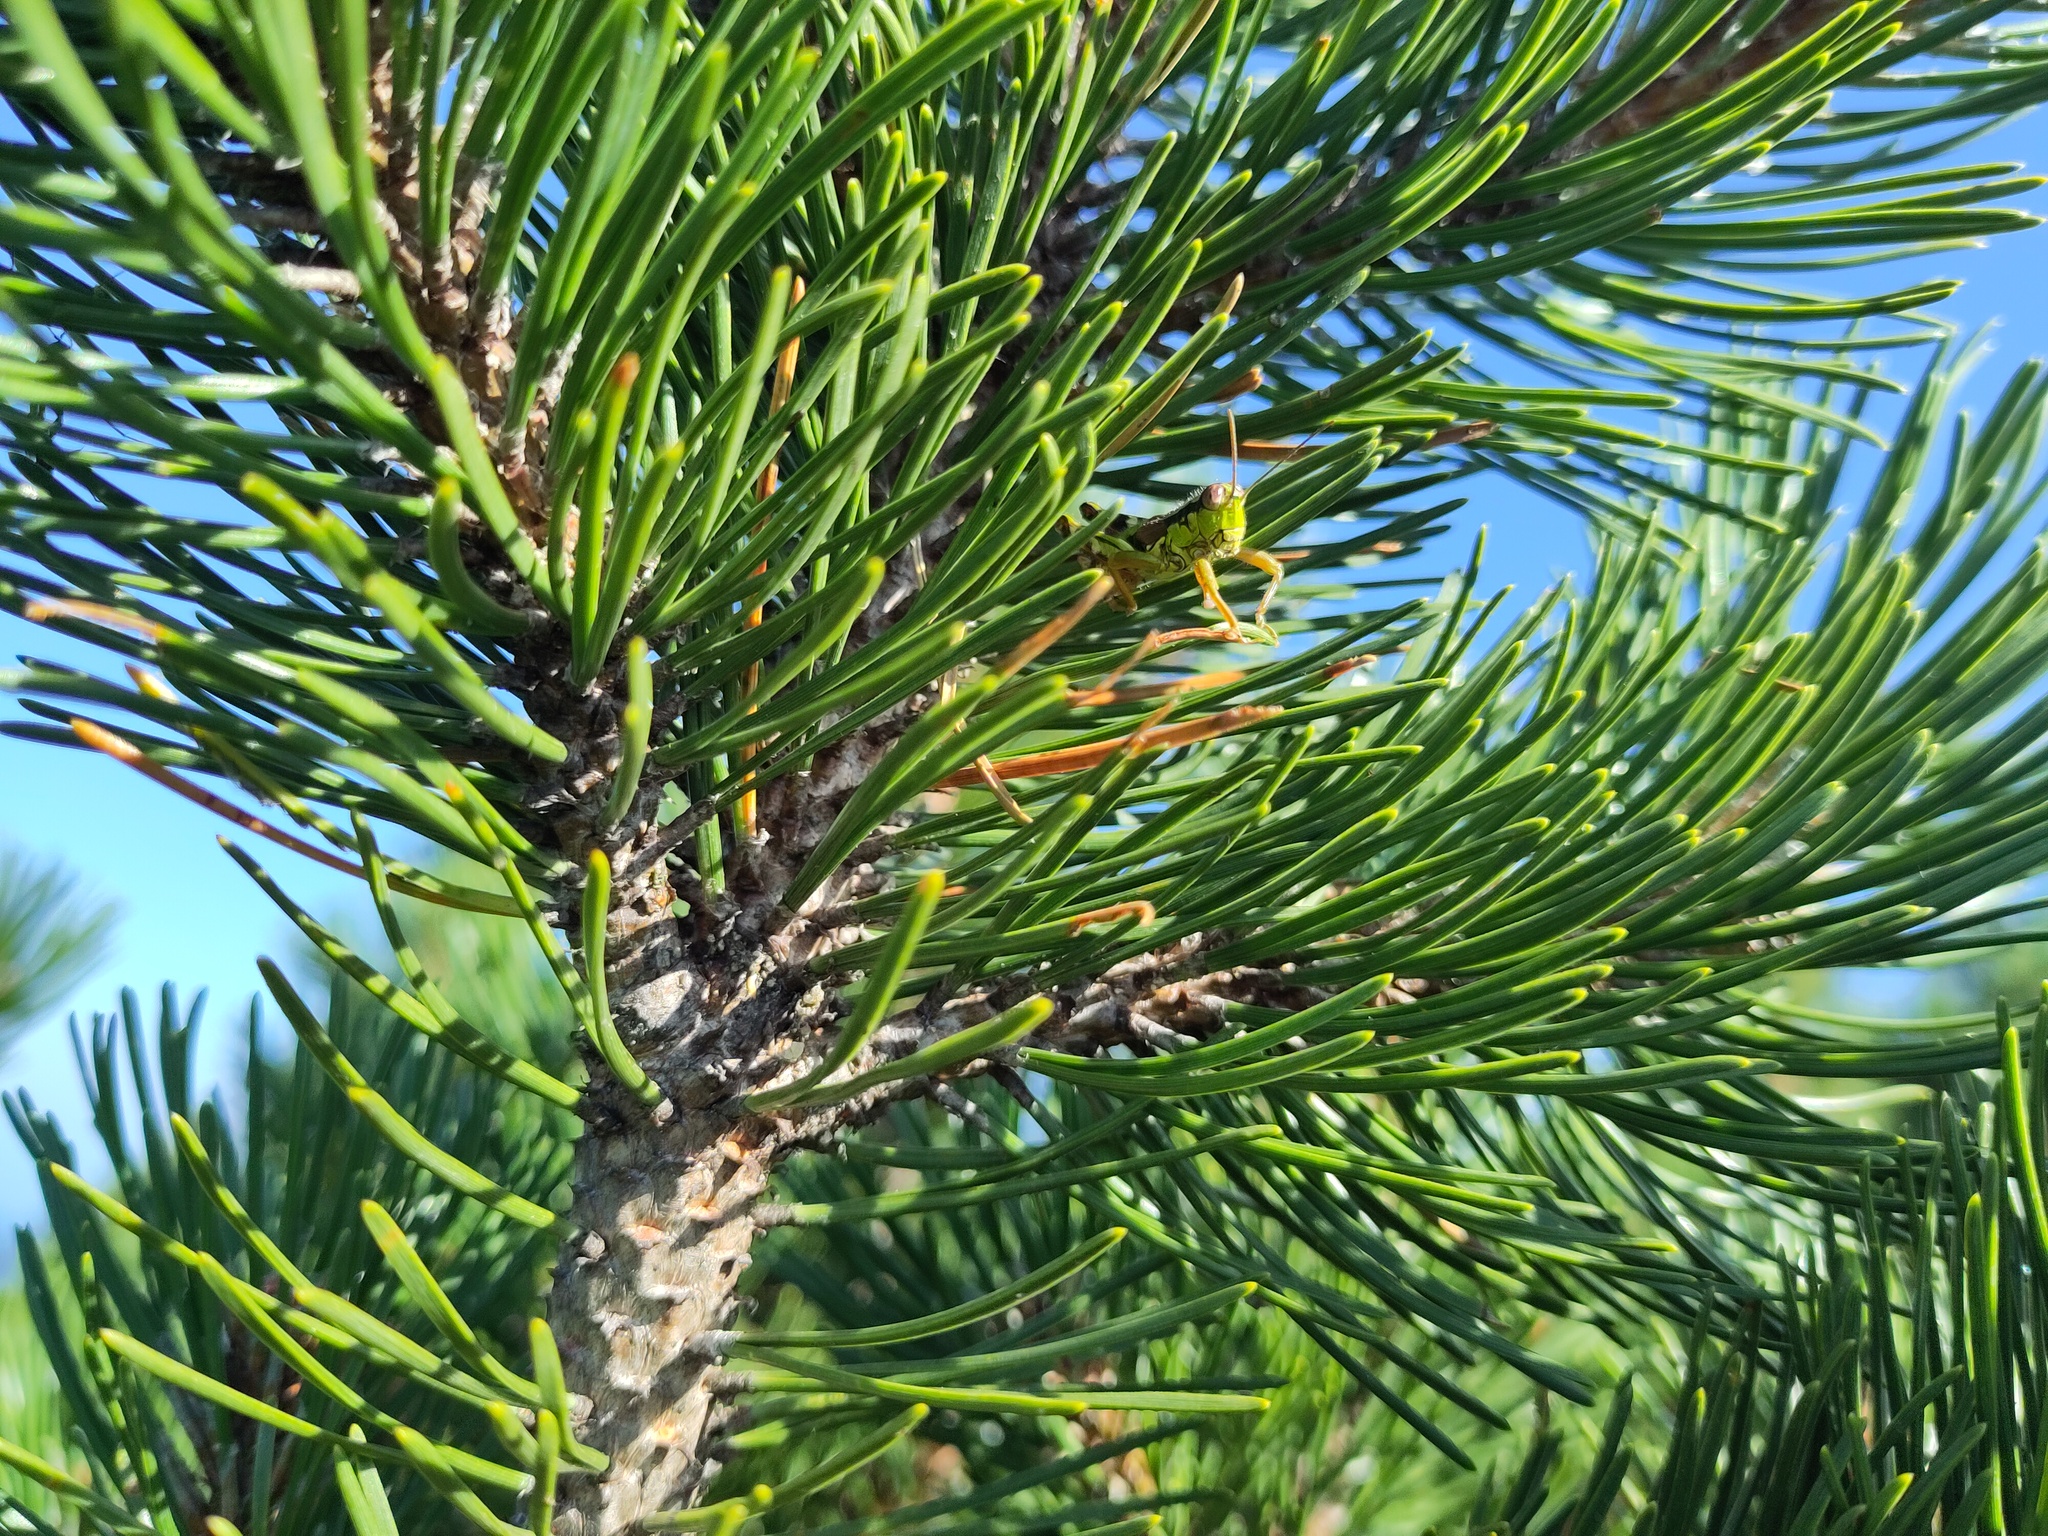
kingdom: Animalia
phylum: Arthropoda
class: Insecta
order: Orthoptera
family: Acrididae
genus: Miramella
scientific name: Miramella alpina
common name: Green mountain grasshopper
